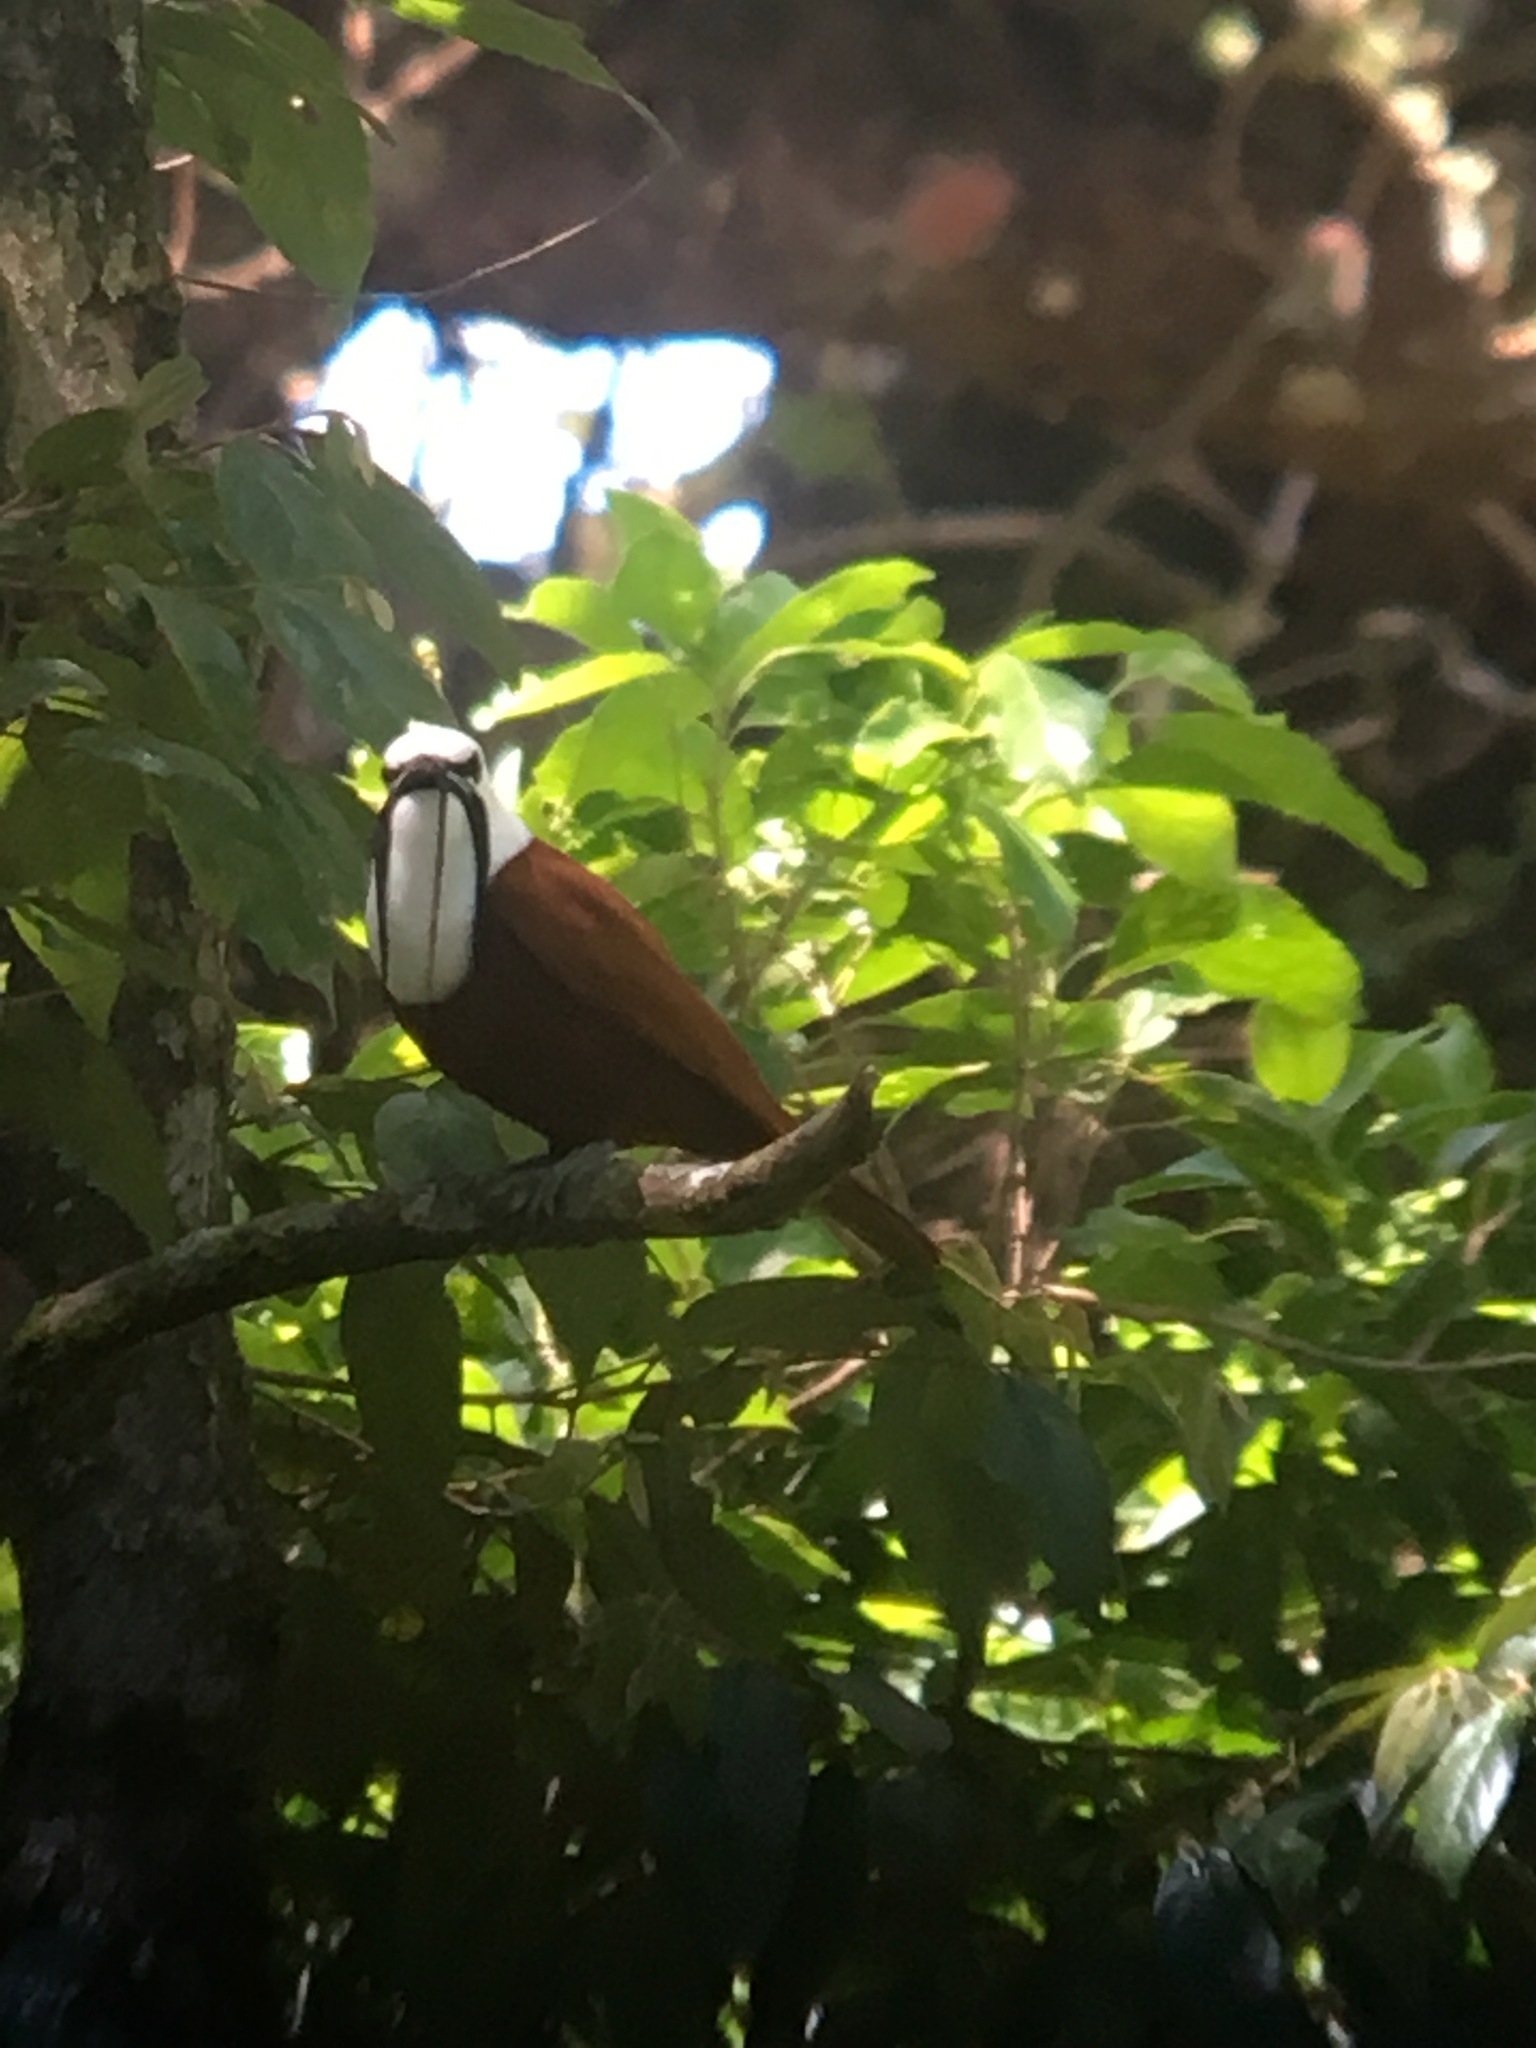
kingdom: Animalia
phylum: Chordata
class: Aves
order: Passeriformes
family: Cotingidae
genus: Procnias
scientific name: Procnias tricarunculatus
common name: Three-wattled bellbird
